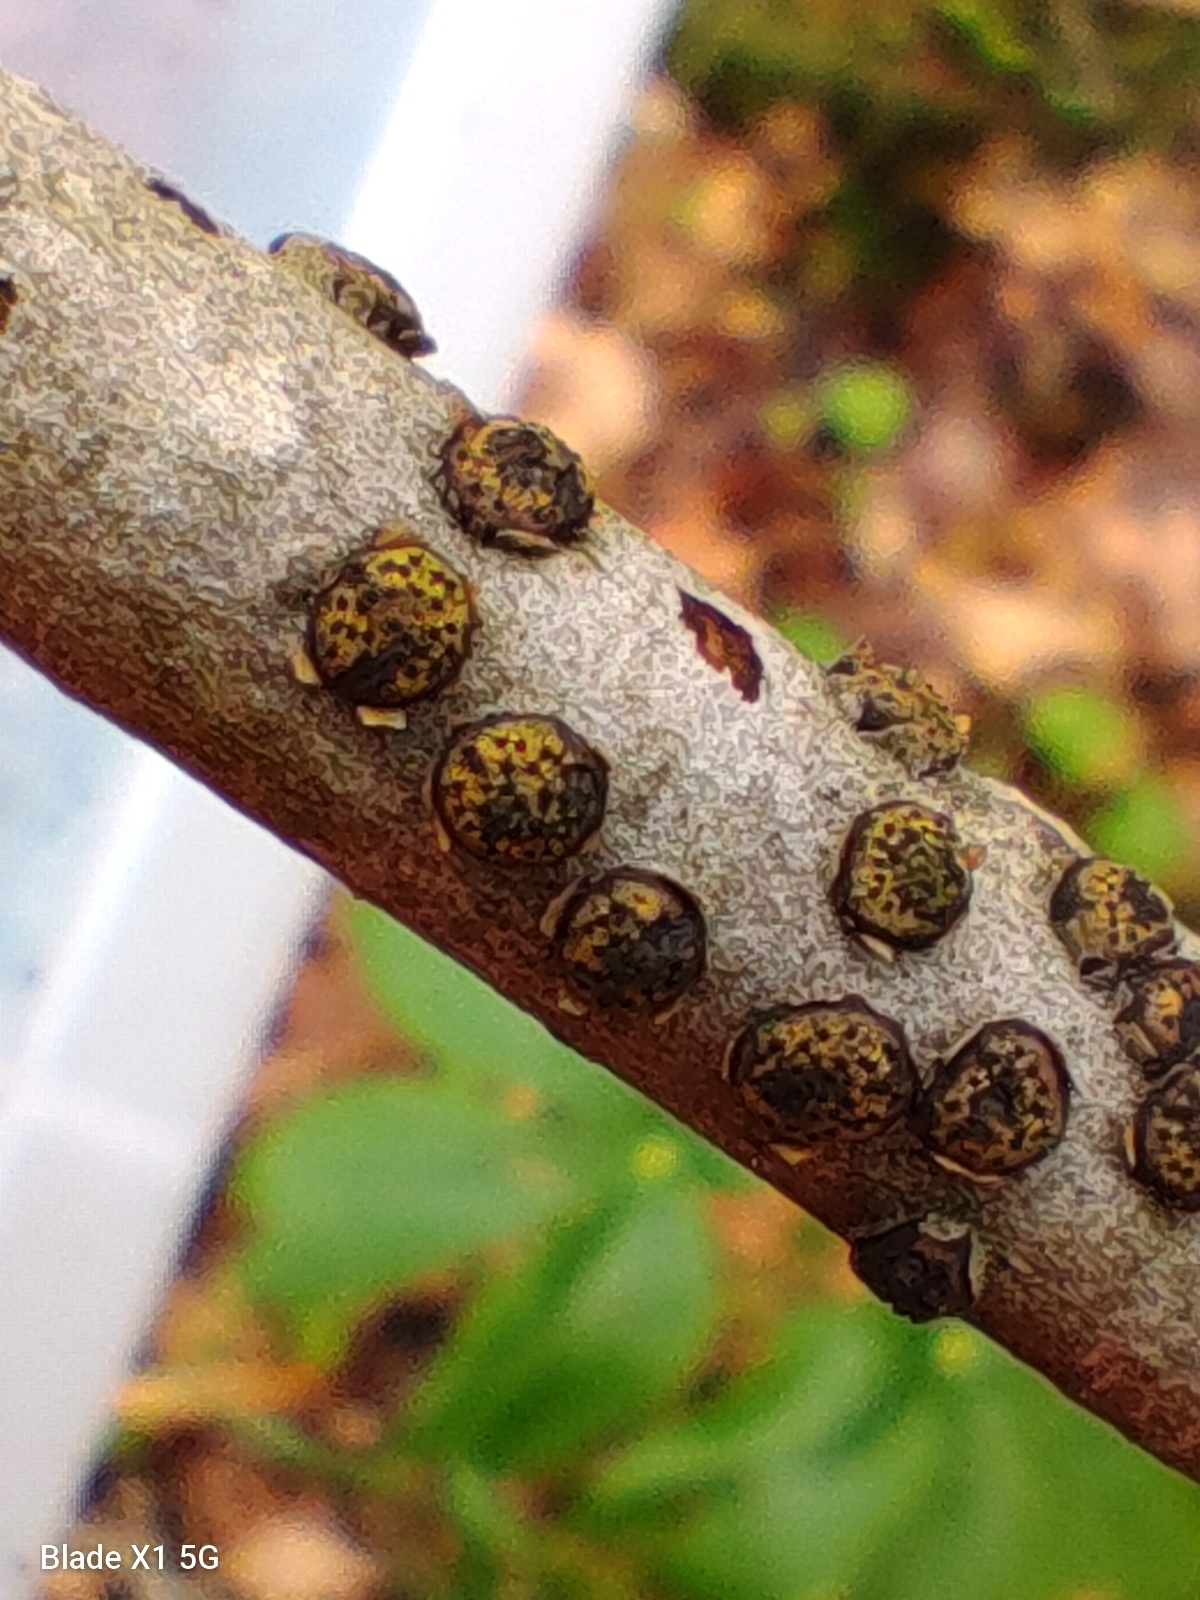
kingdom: Fungi
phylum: Ascomycota
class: Sordariomycetes
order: Xylariales
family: Diatrypaceae
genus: Diatrype
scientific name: Diatrype virescens
